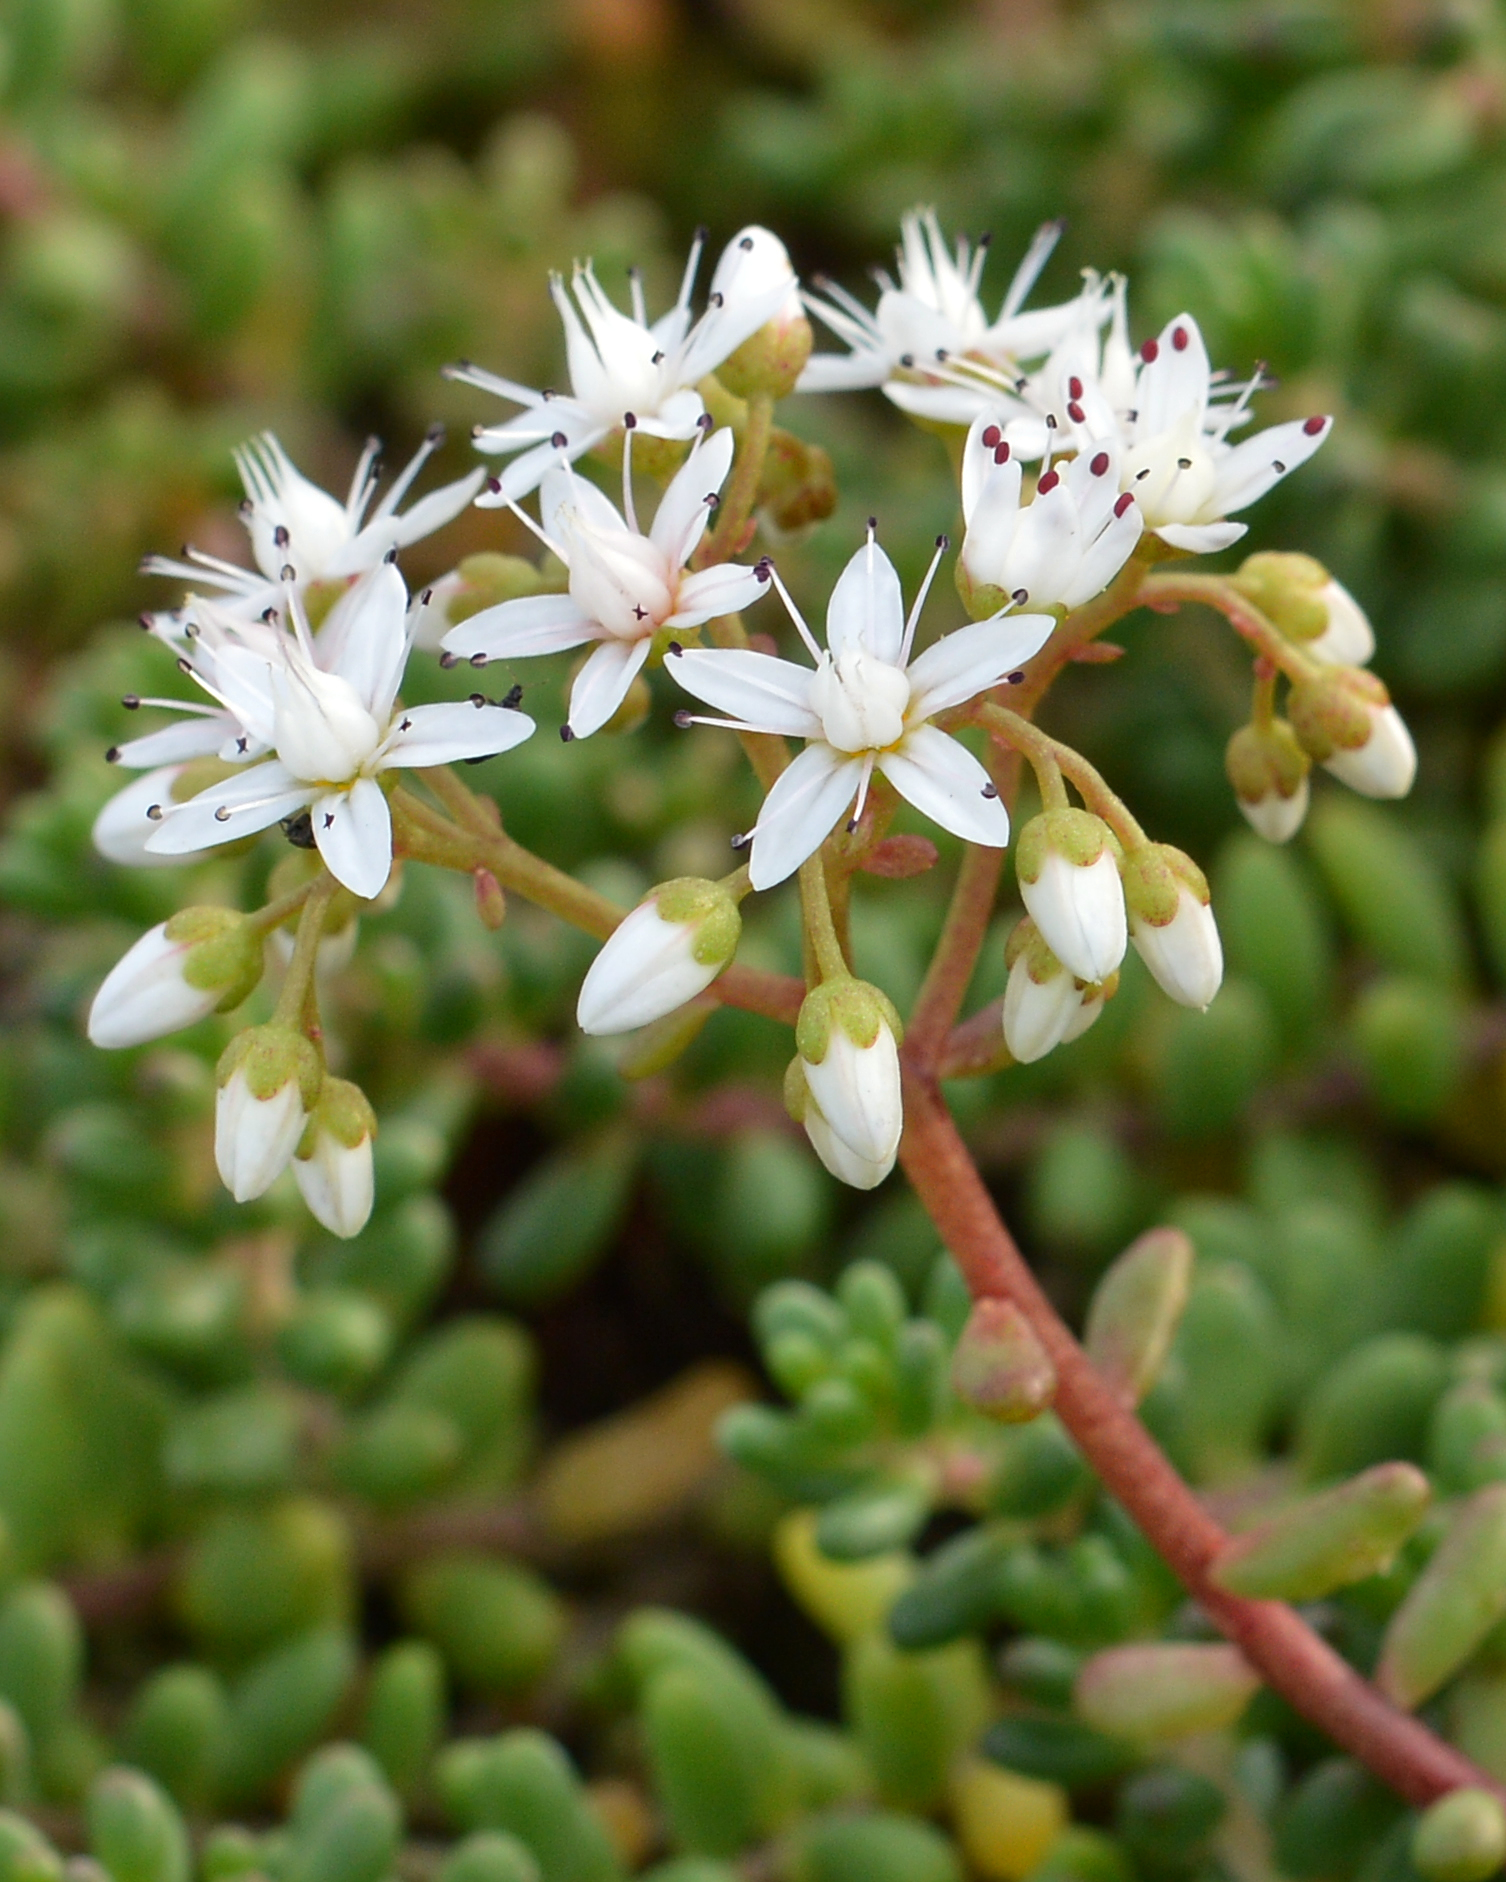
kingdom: Plantae
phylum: Tracheophyta
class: Magnoliopsida
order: Saxifragales
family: Crassulaceae
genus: Sedum
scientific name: Sedum album
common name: White stonecrop
